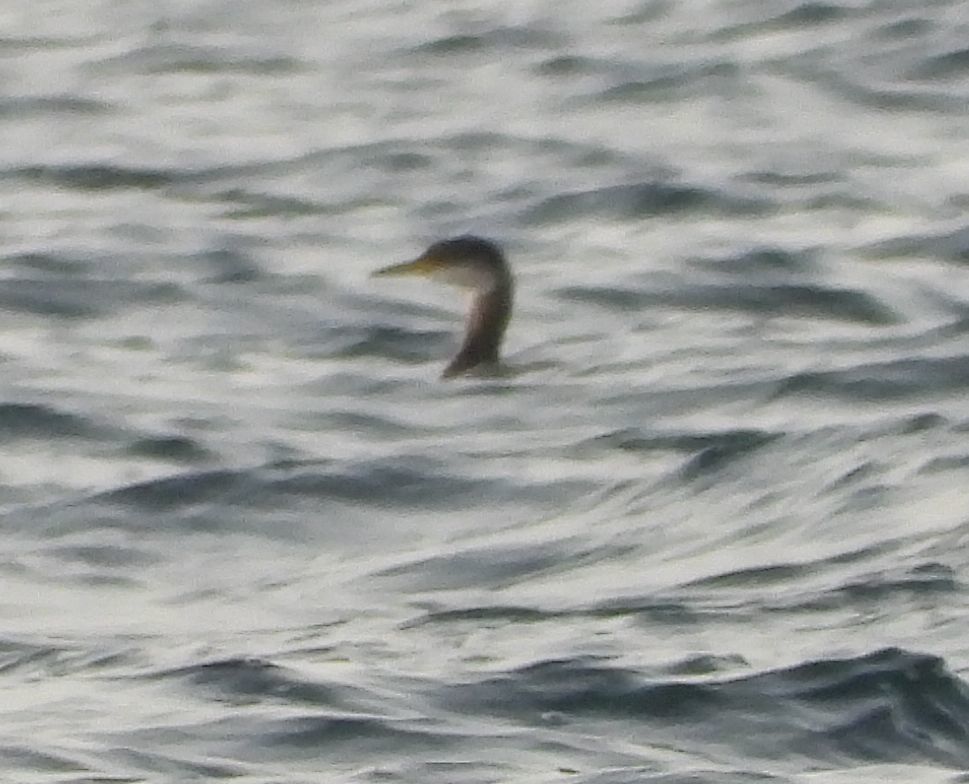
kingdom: Animalia
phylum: Chordata
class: Aves
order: Podicipediformes
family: Podicipedidae
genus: Podiceps
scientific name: Podiceps grisegena
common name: Red-necked grebe
